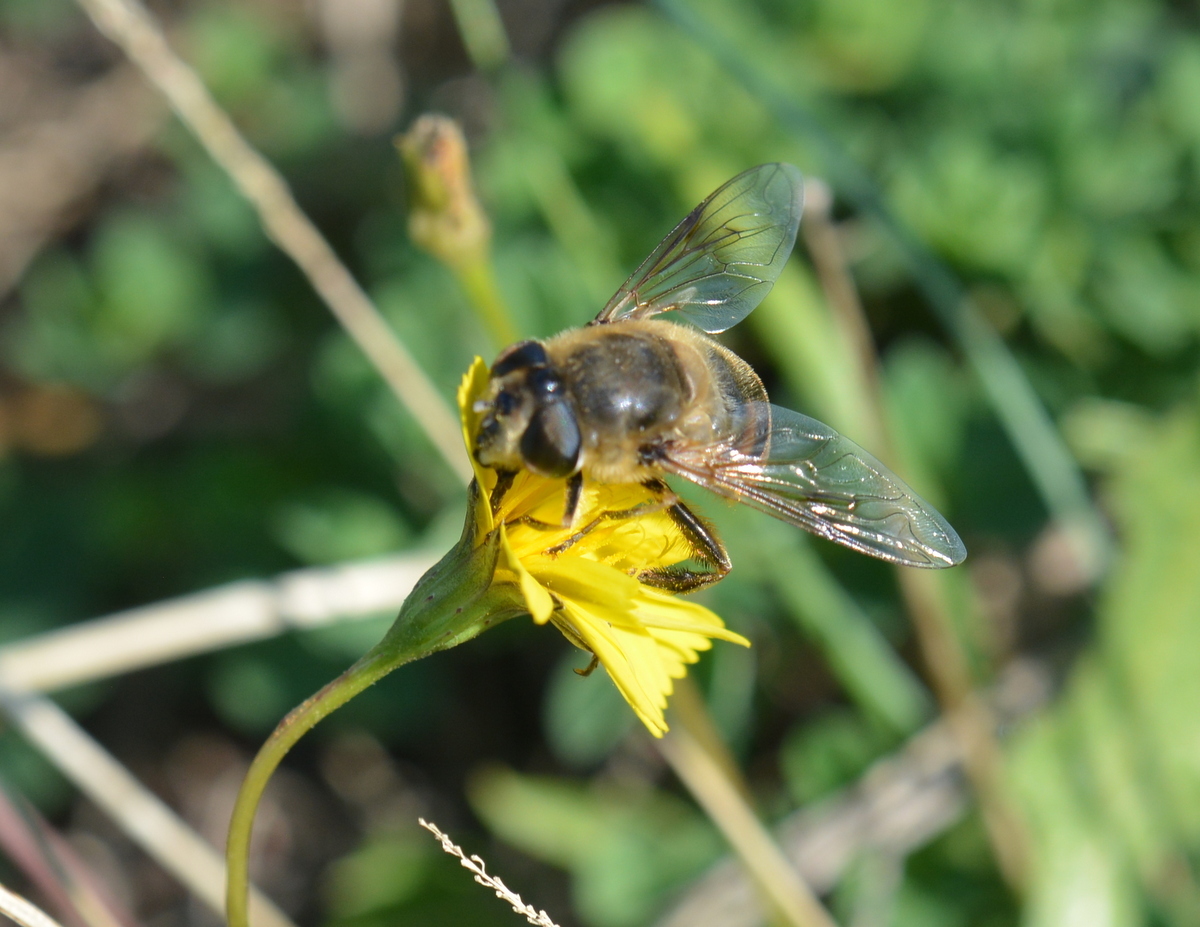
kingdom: Animalia
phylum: Arthropoda
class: Insecta
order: Diptera
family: Syrphidae
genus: Eristalis
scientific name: Eristalis tenax
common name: Drone fly
